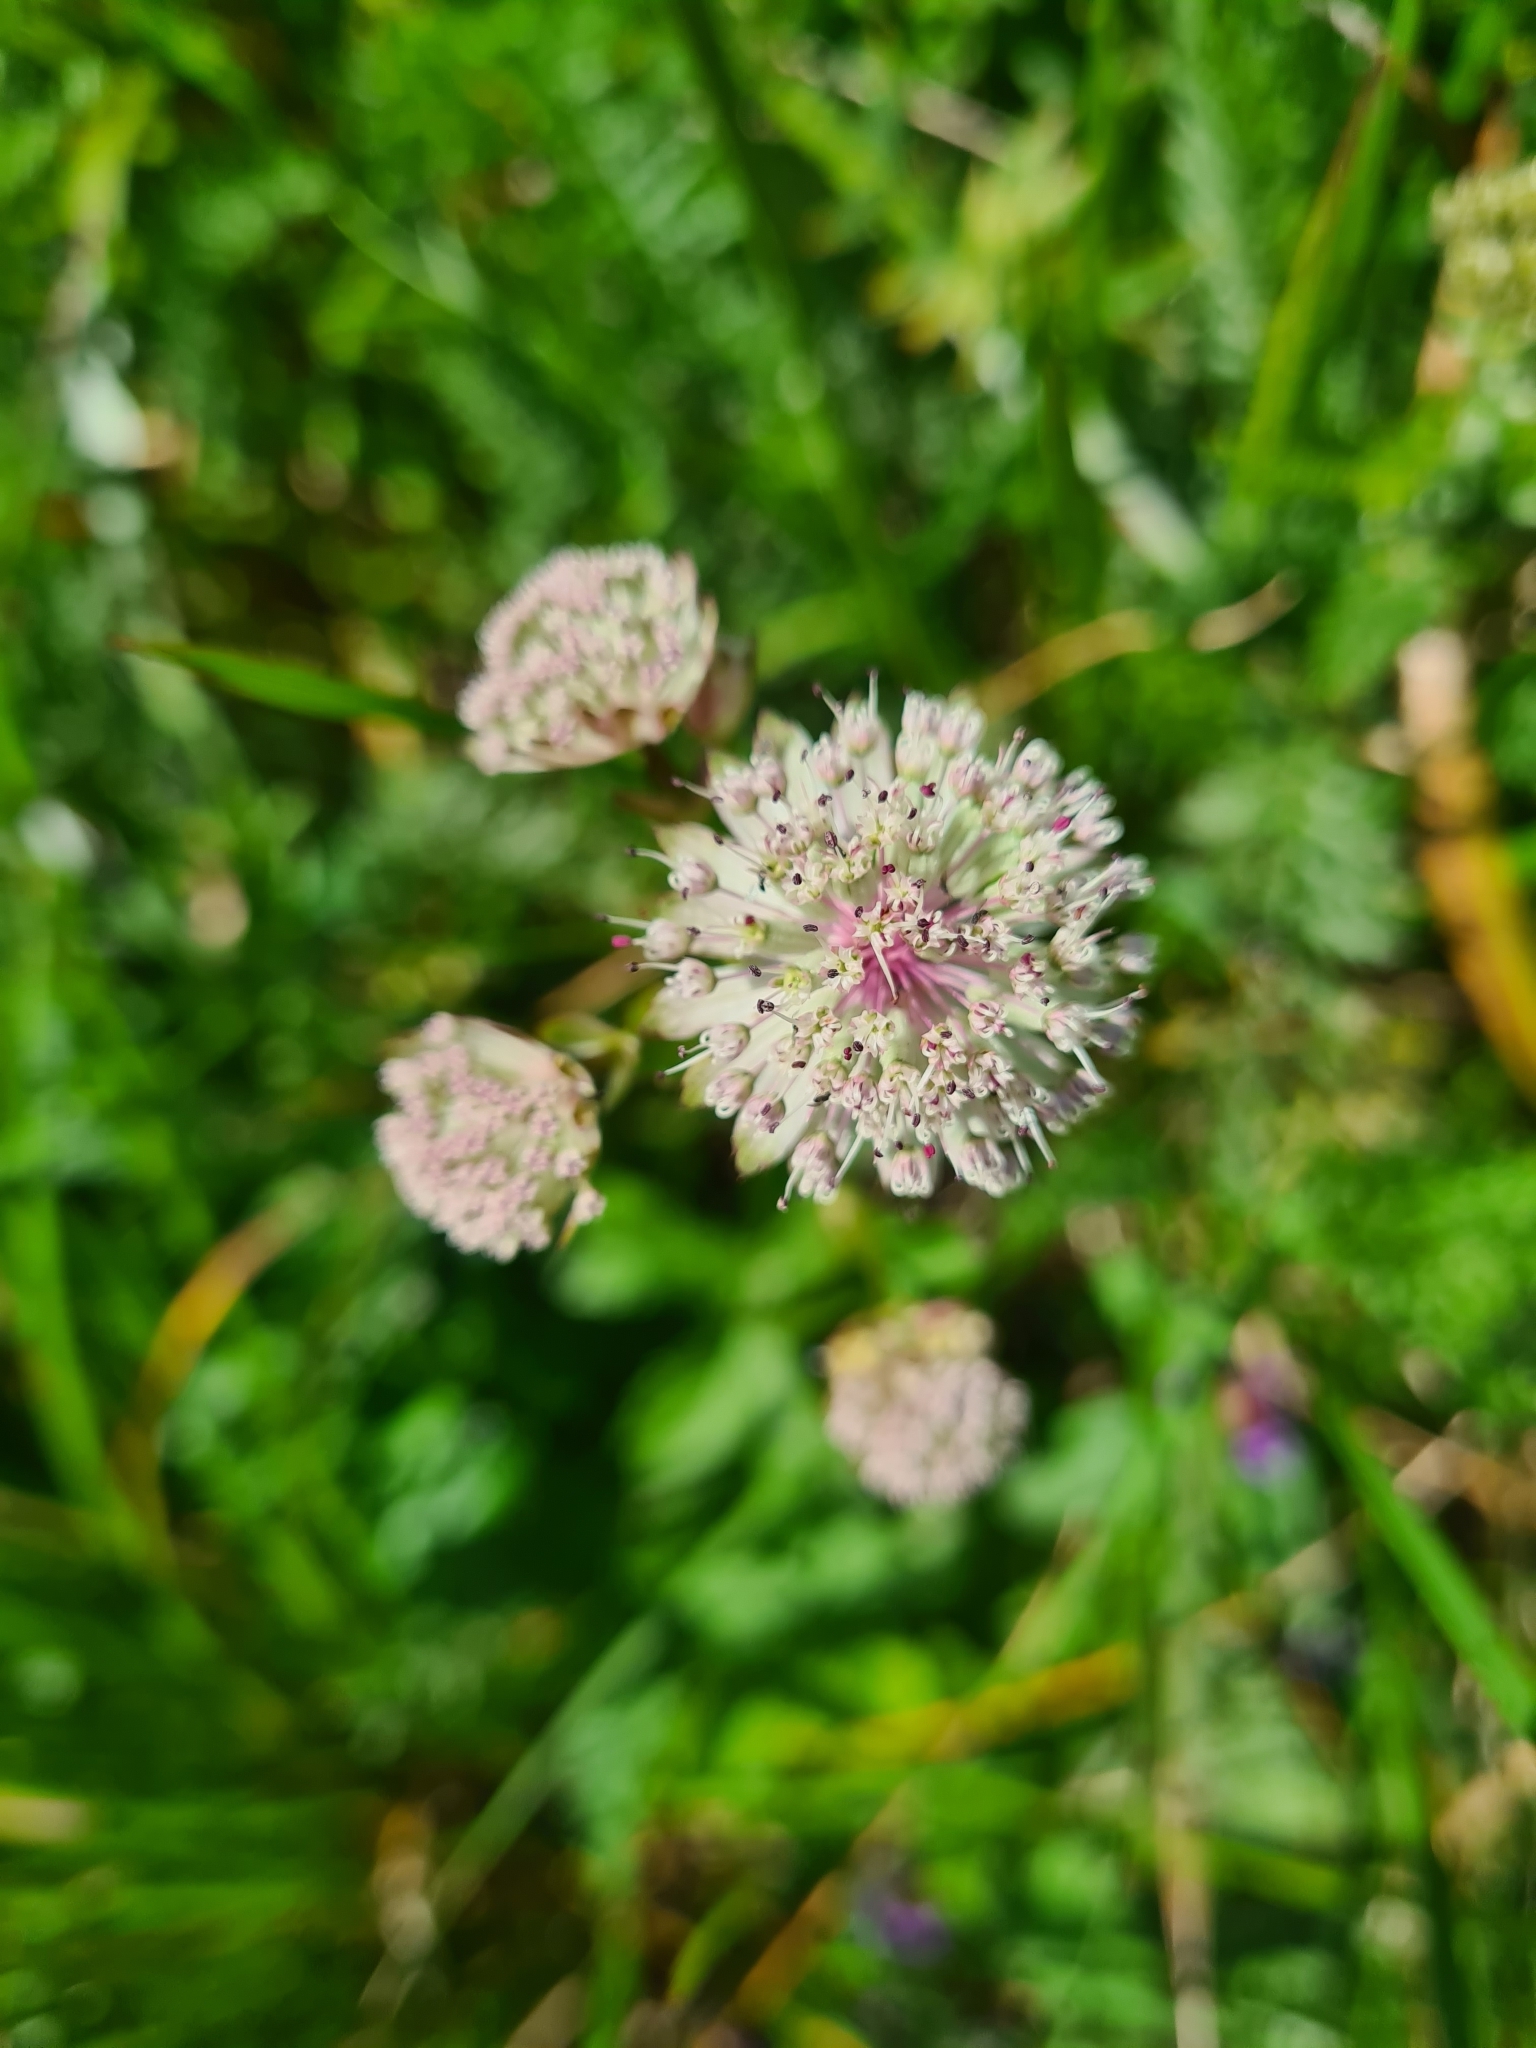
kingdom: Plantae
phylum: Tracheophyta
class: Magnoliopsida
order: Apiales
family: Apiaceae
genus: Astrantia
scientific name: Astrantia major
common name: Greater masterwort
